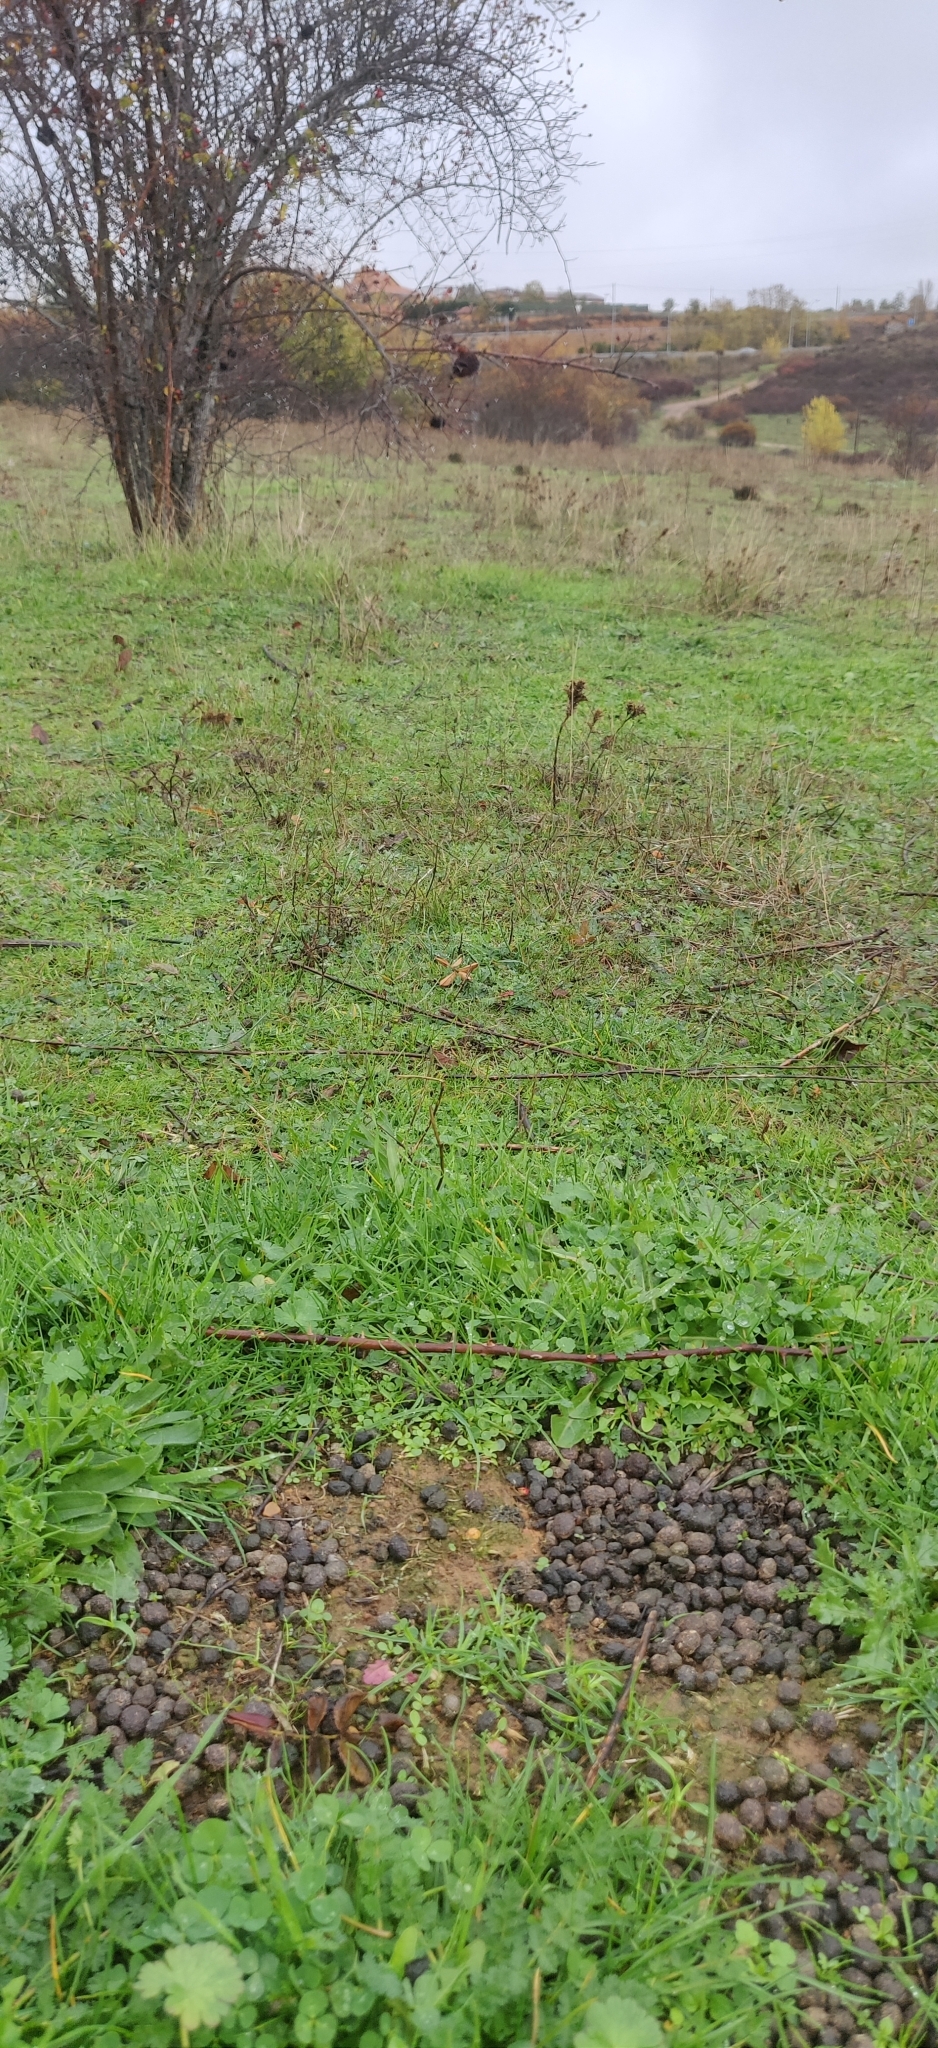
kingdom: Animalia
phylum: Chordata
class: Mammalia
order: Lagomorpha
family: Leporidae
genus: Oryctolagus
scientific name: Oryctolagus cuniculus
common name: European rabbit
